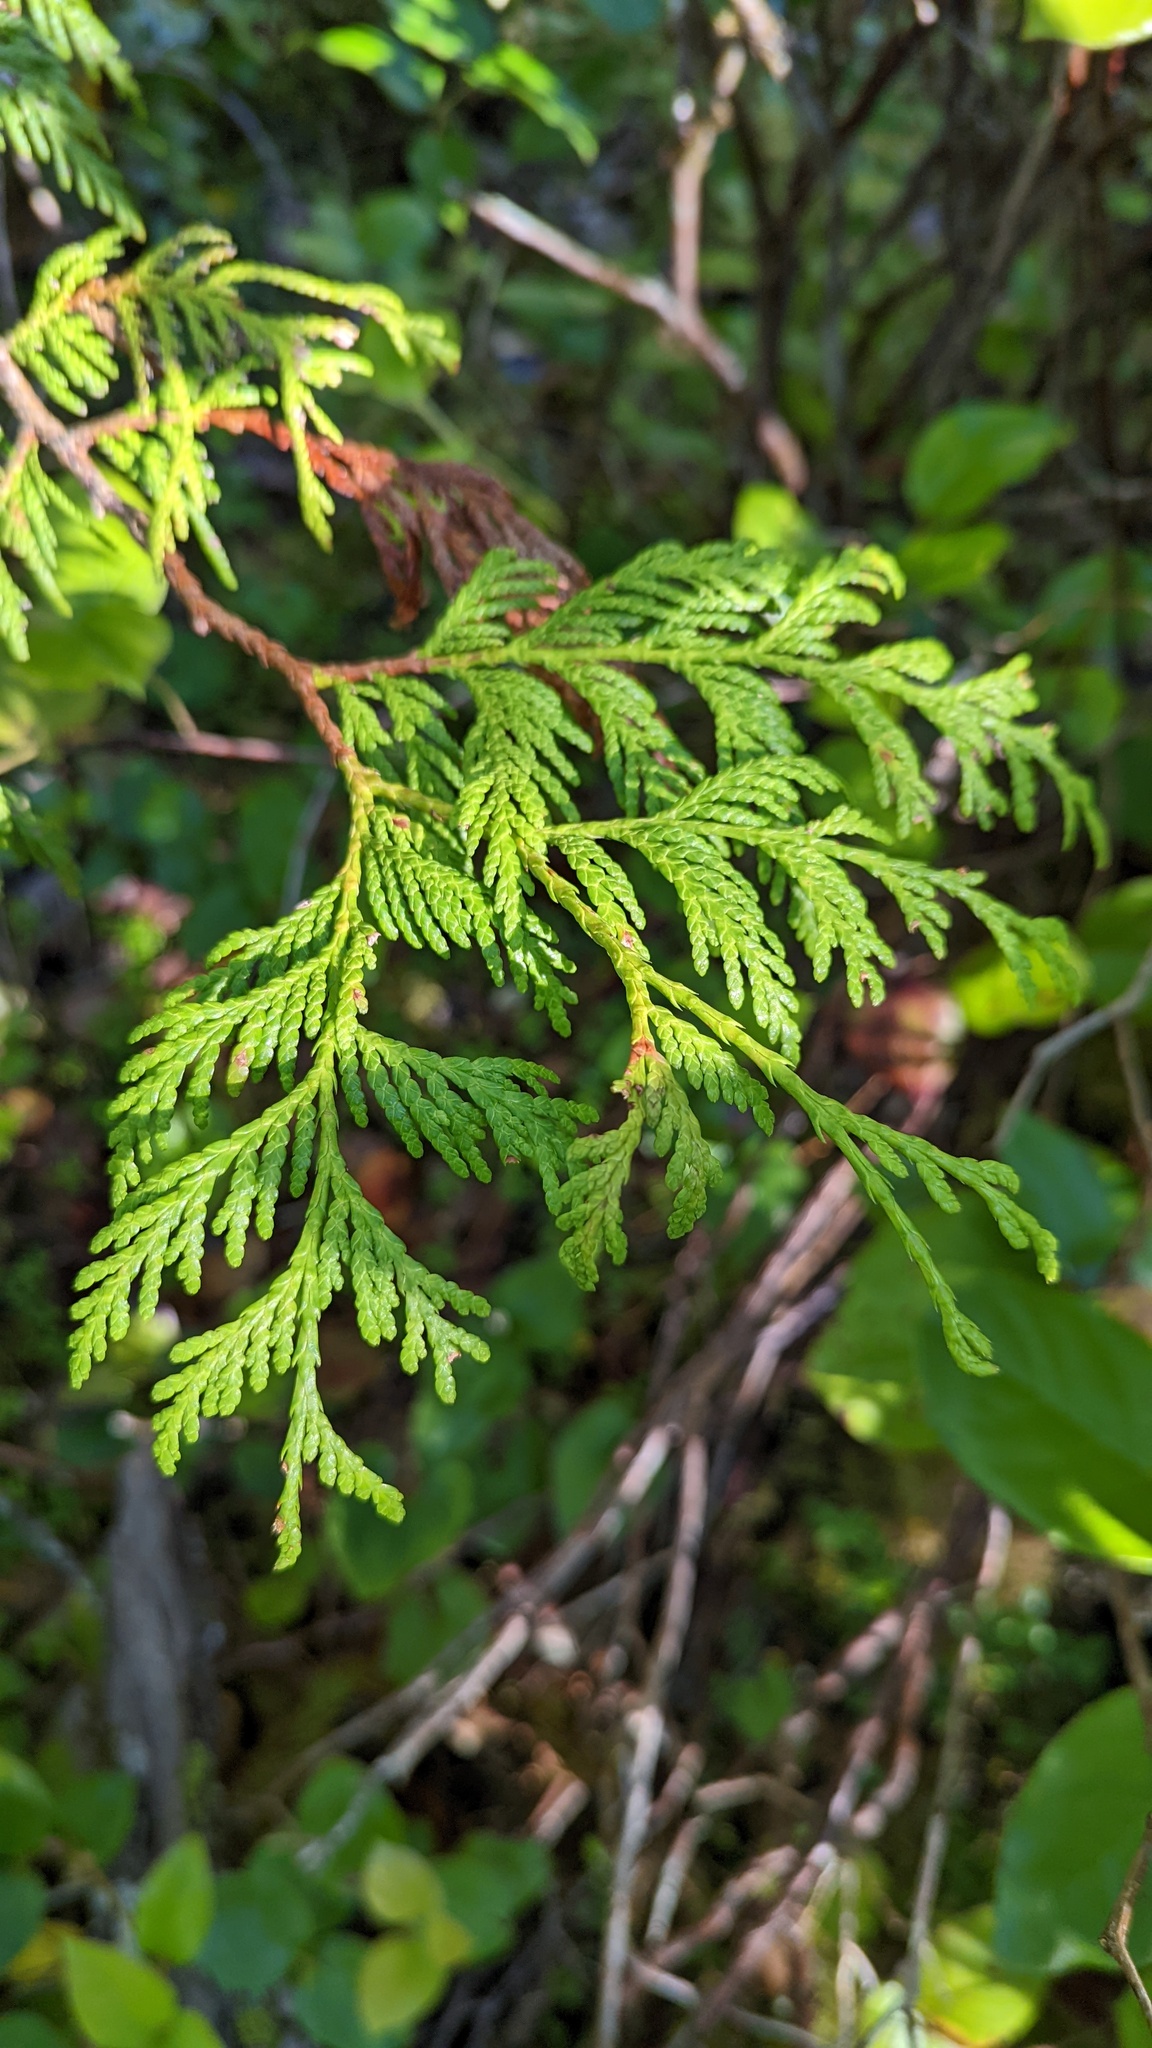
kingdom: Plantae
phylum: Tracheophyta
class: Pinopsida
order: Pinales
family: Cupressaceae
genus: Thuja
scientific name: Thuja plicata
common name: Western red-cedar
